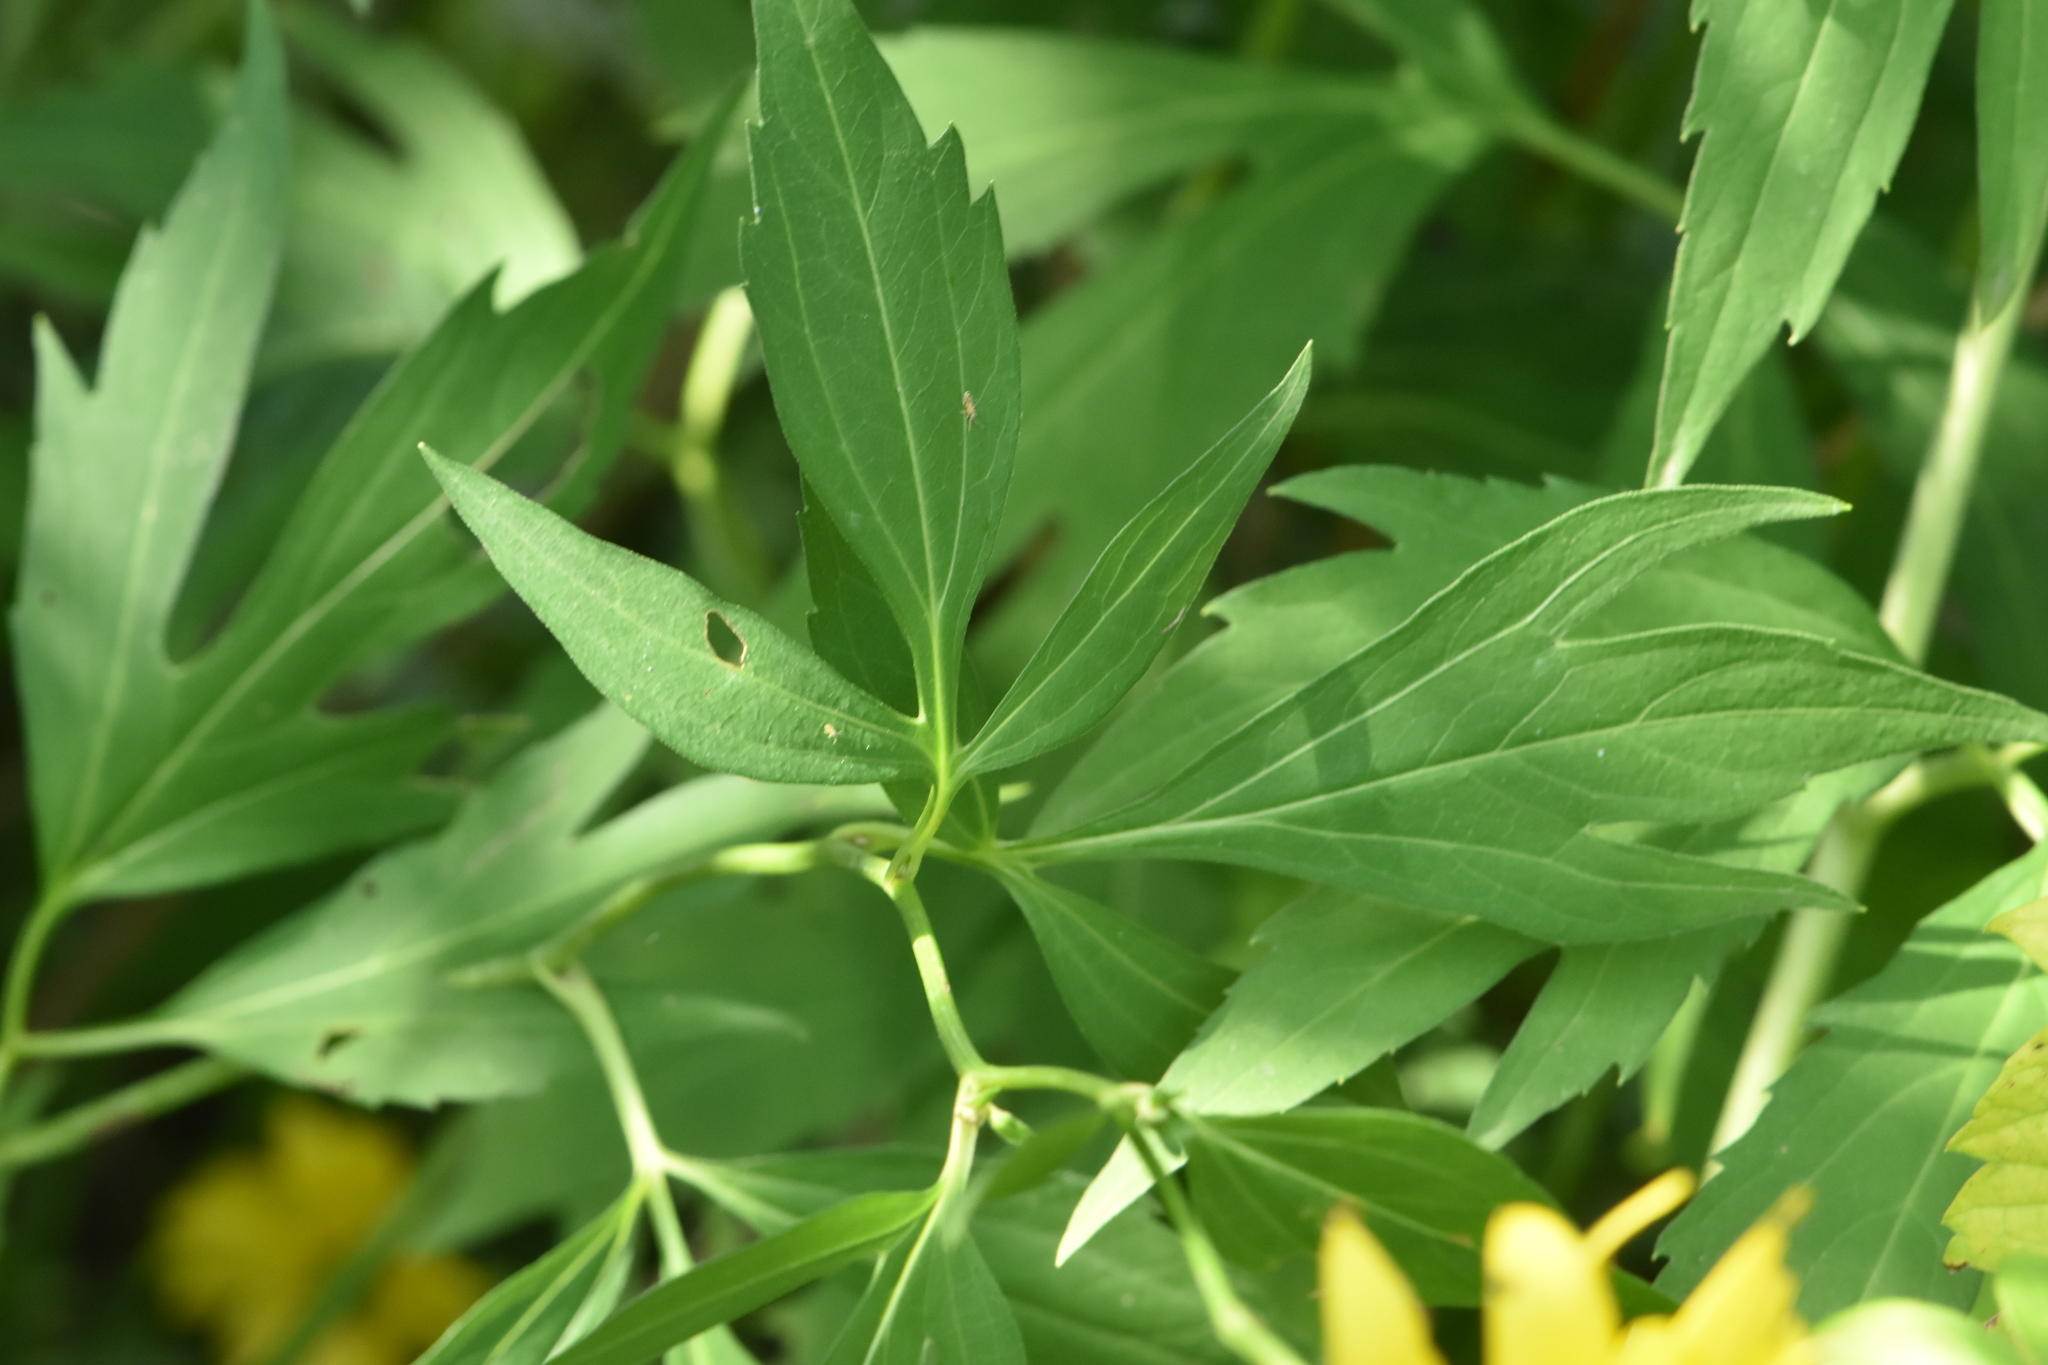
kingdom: Plantae
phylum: Tracheophyta
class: Magnoliopsida
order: Asterales
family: Asteraceae
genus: Rudbeckia
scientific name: Rudbeckia laciniata
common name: Coneflower
